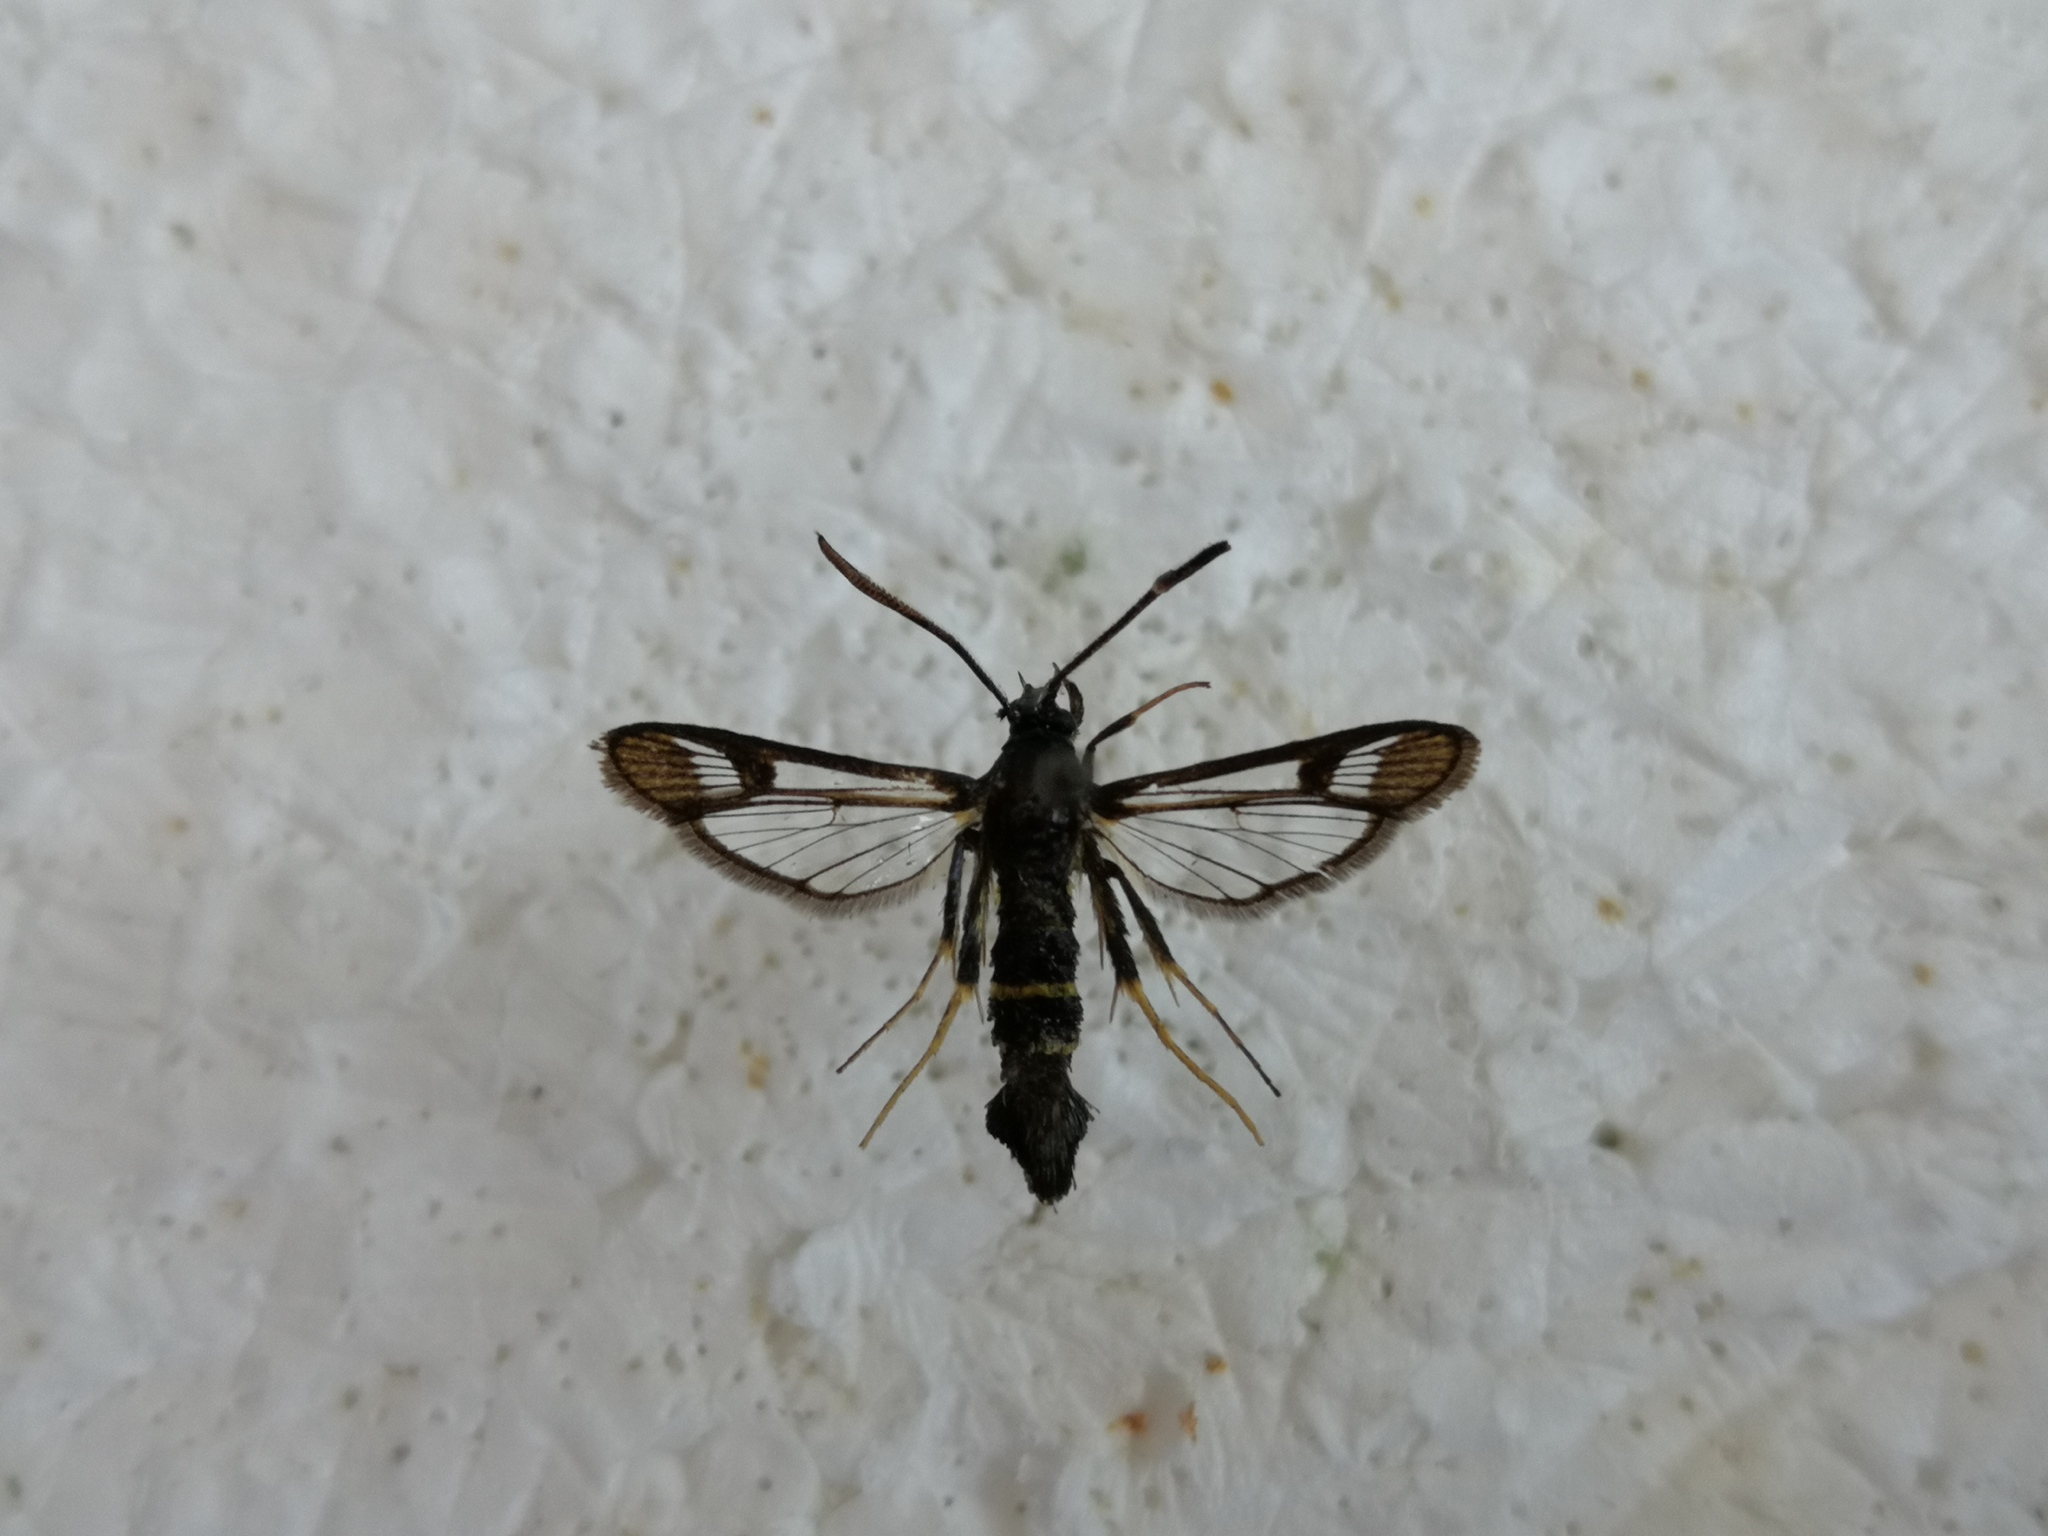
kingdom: Animalia
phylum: Arthropoda
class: Insecta
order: Lepidoptera
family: Sesiidae
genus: Synanthedon
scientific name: Synanthedon flaviventris
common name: Sallow clearwing
